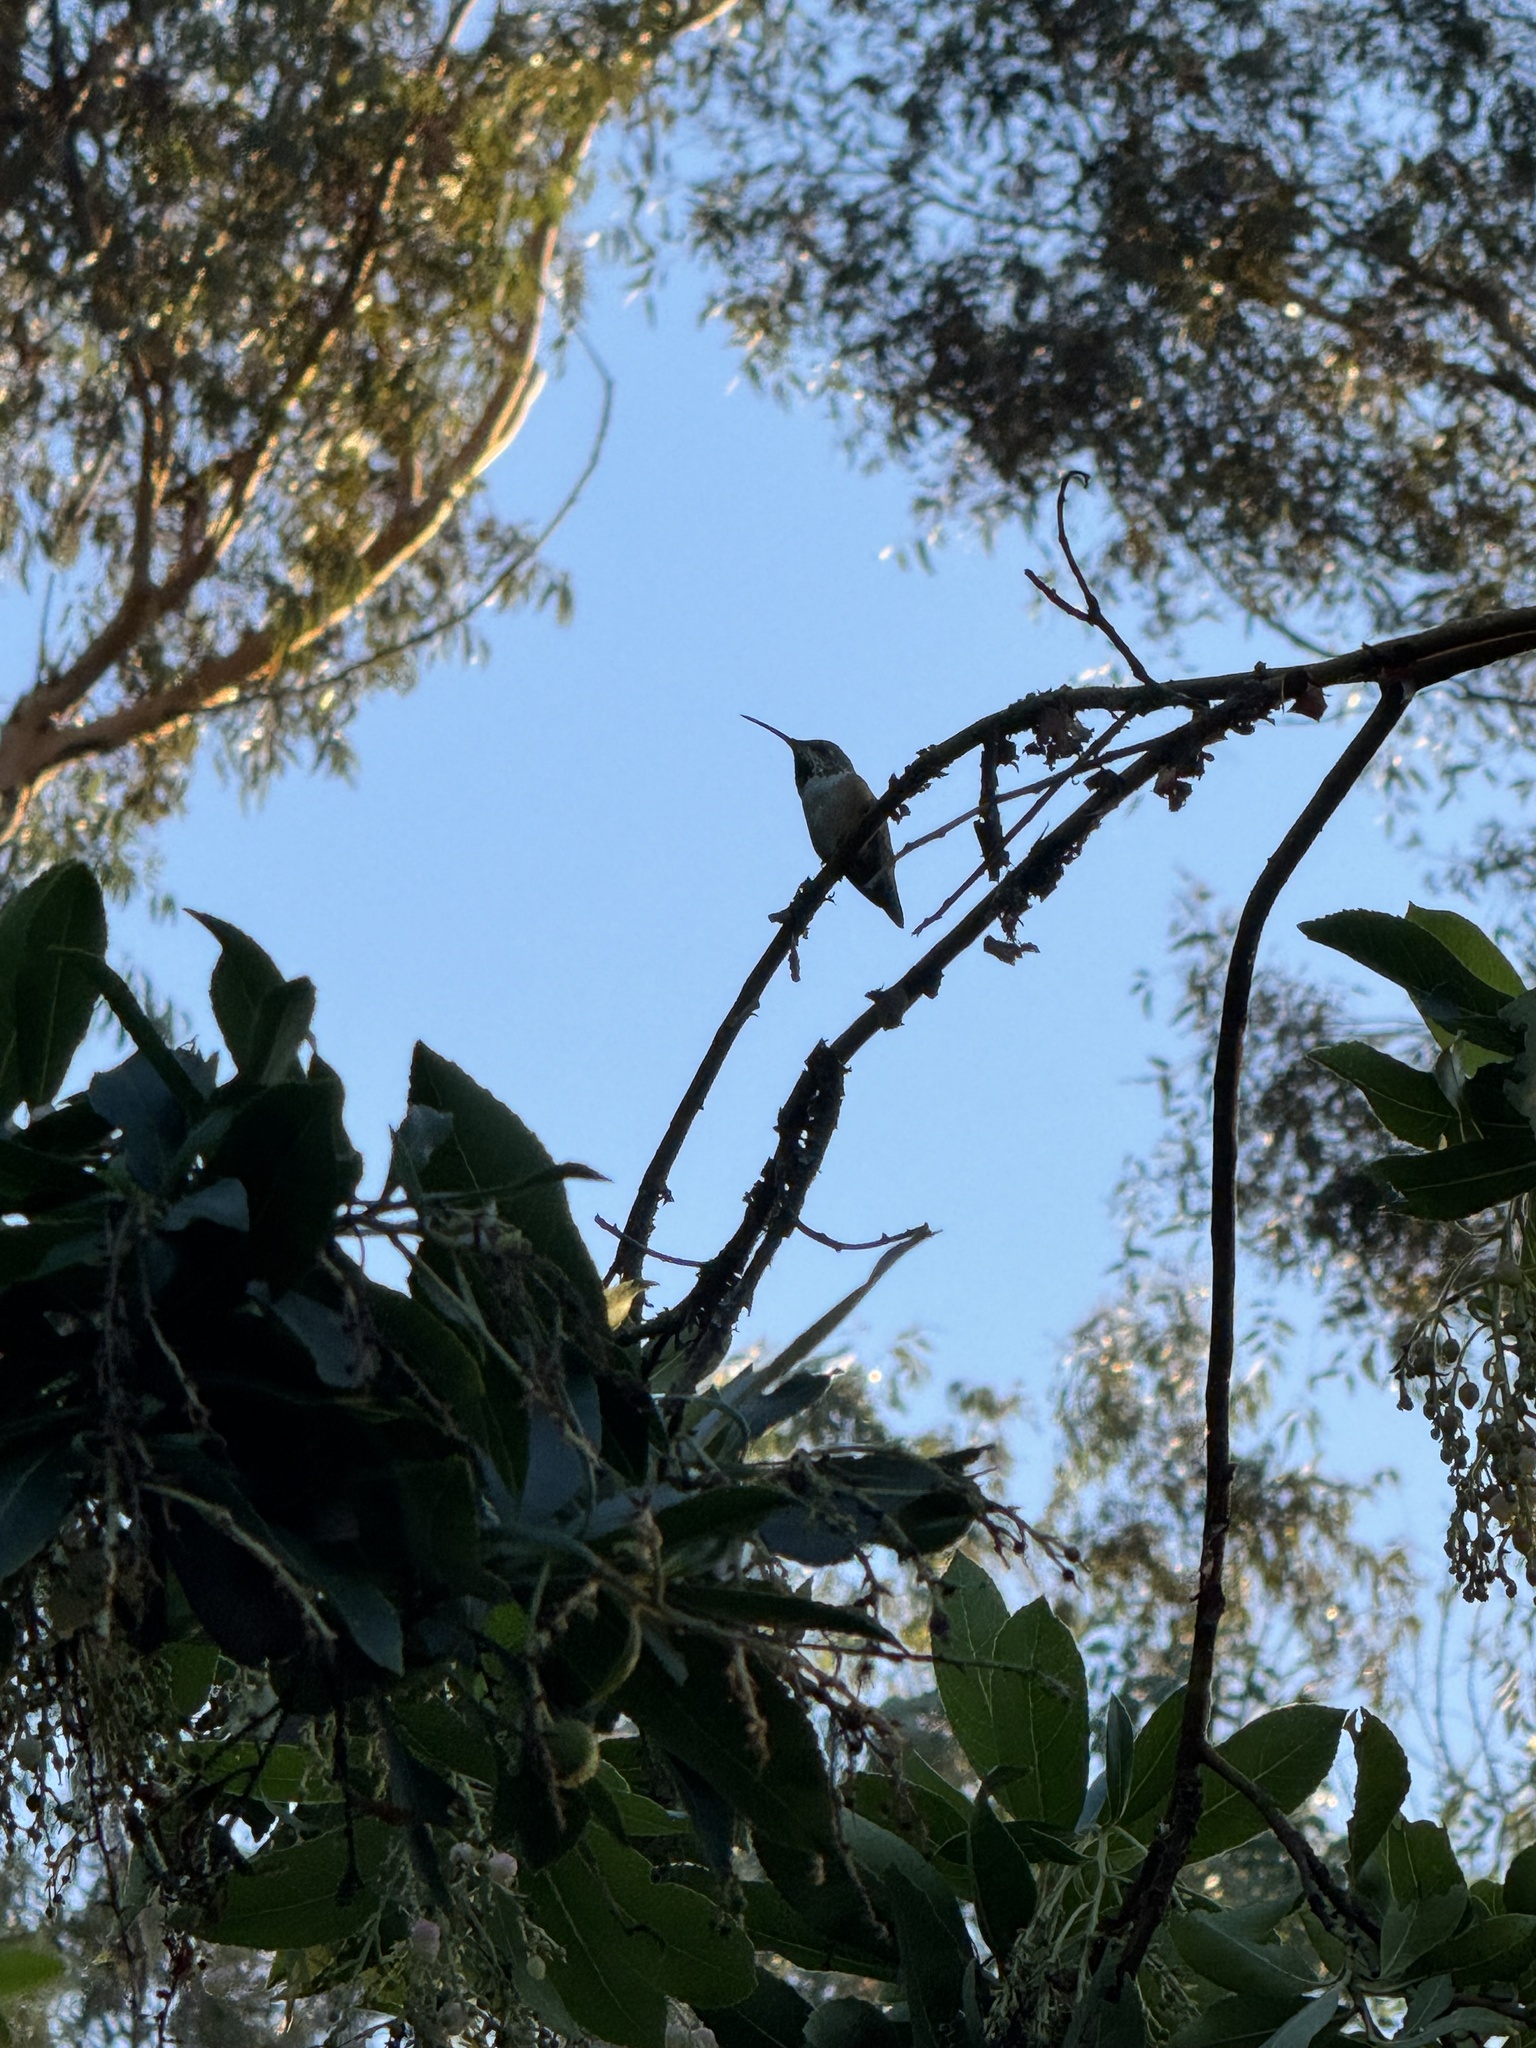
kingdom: Animalia
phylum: Chordata
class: Aves
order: Apodiformes
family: Trochilidae
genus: Selasphorus
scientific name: Selasphorus sasin
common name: Allen's hummingbird
